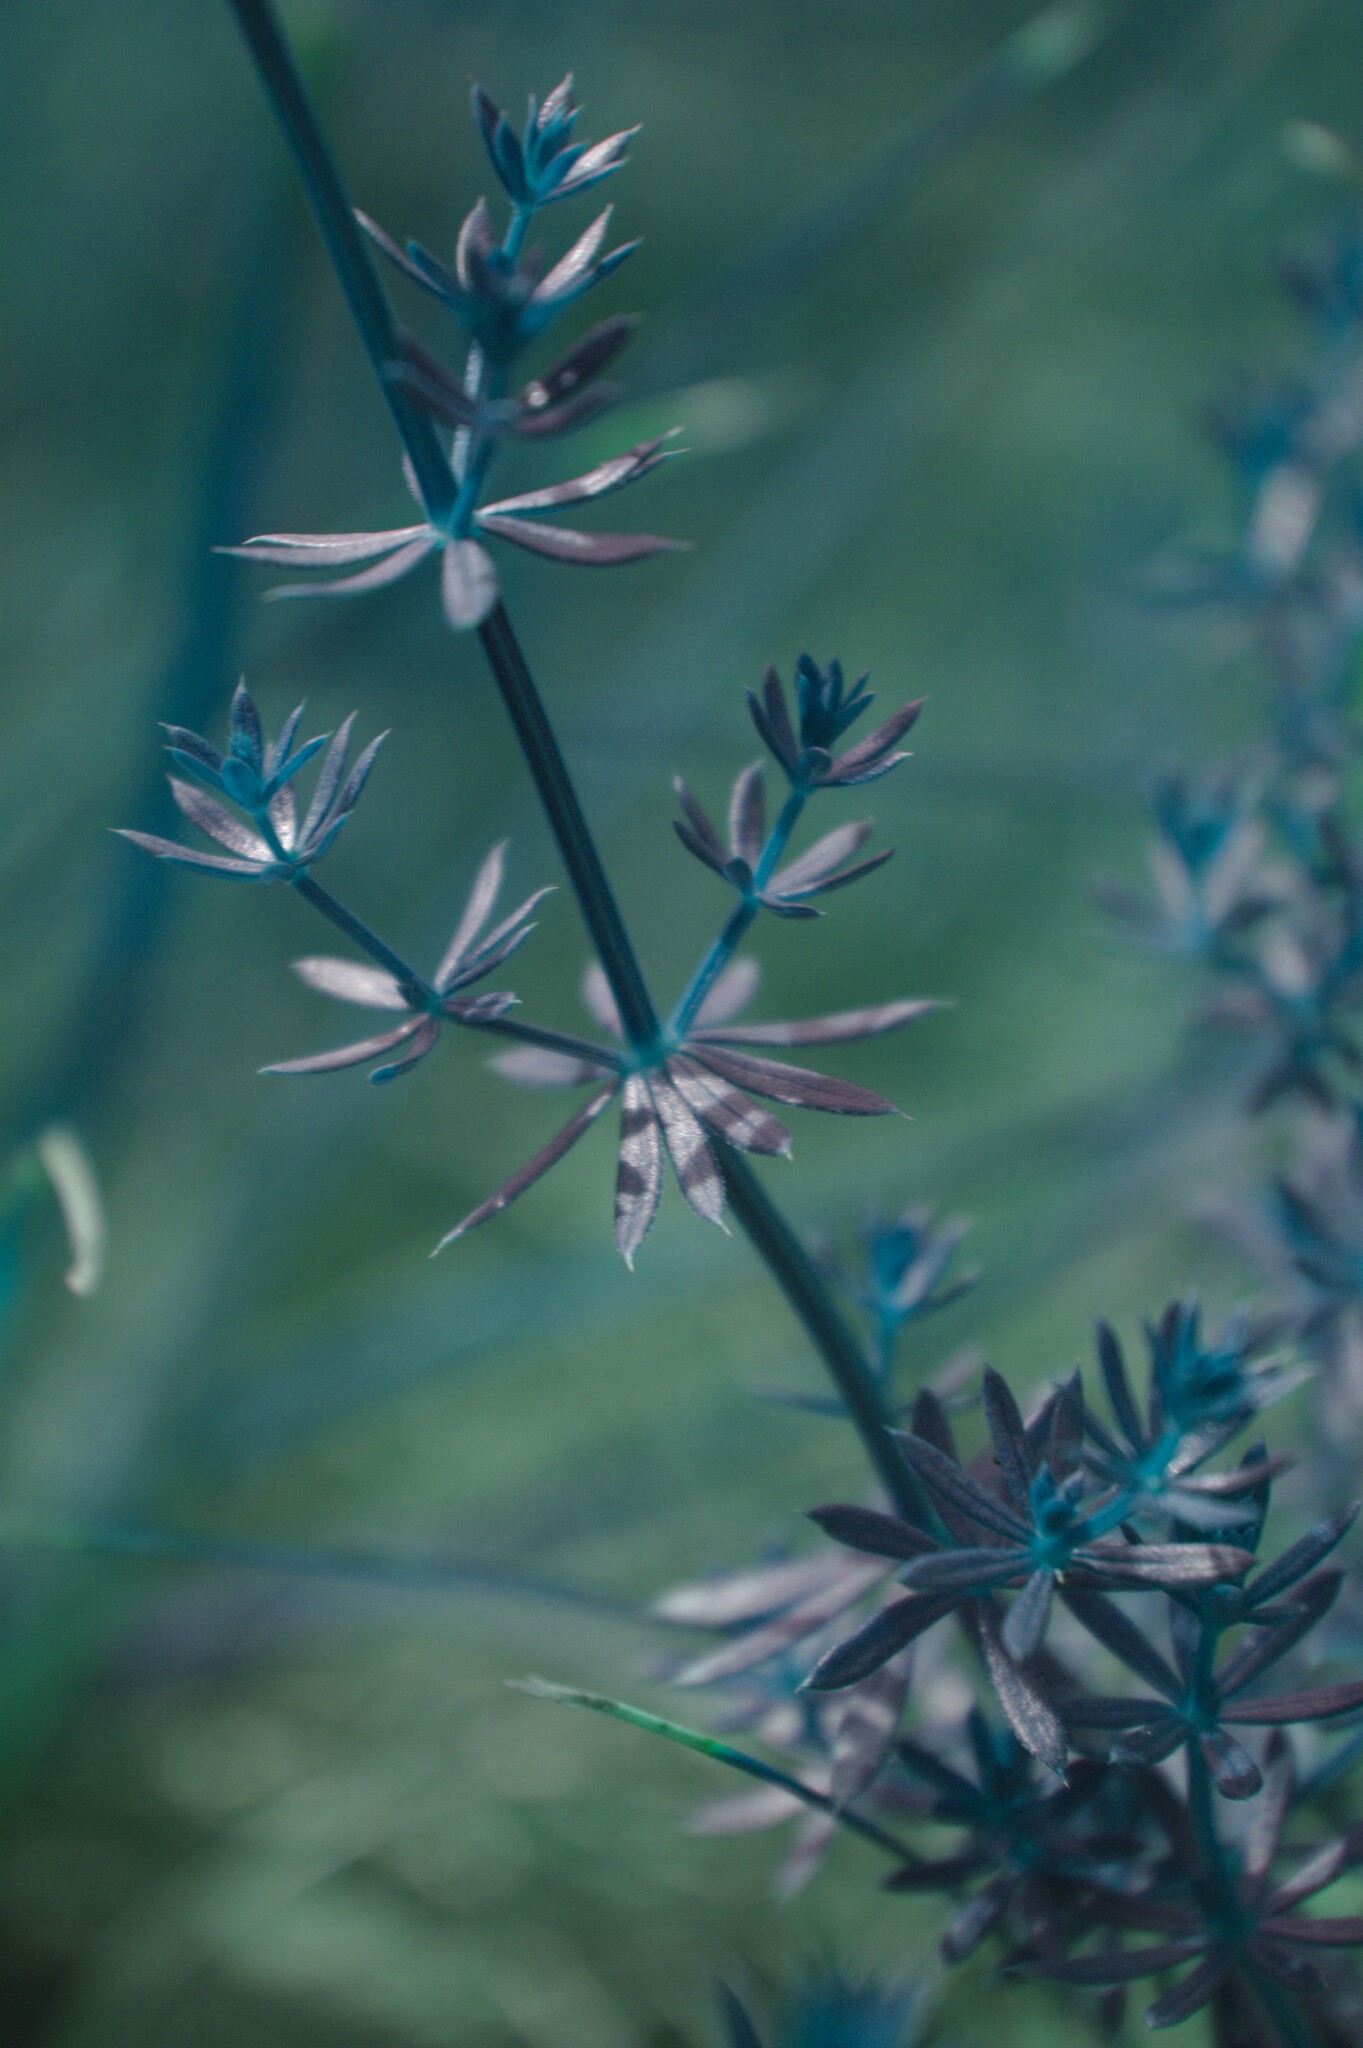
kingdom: Plantae
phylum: Tracheophyta
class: Magnoliopsida
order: Gentianales
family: Rubiaceae
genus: Galium
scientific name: Galium album
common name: White bedstraw
